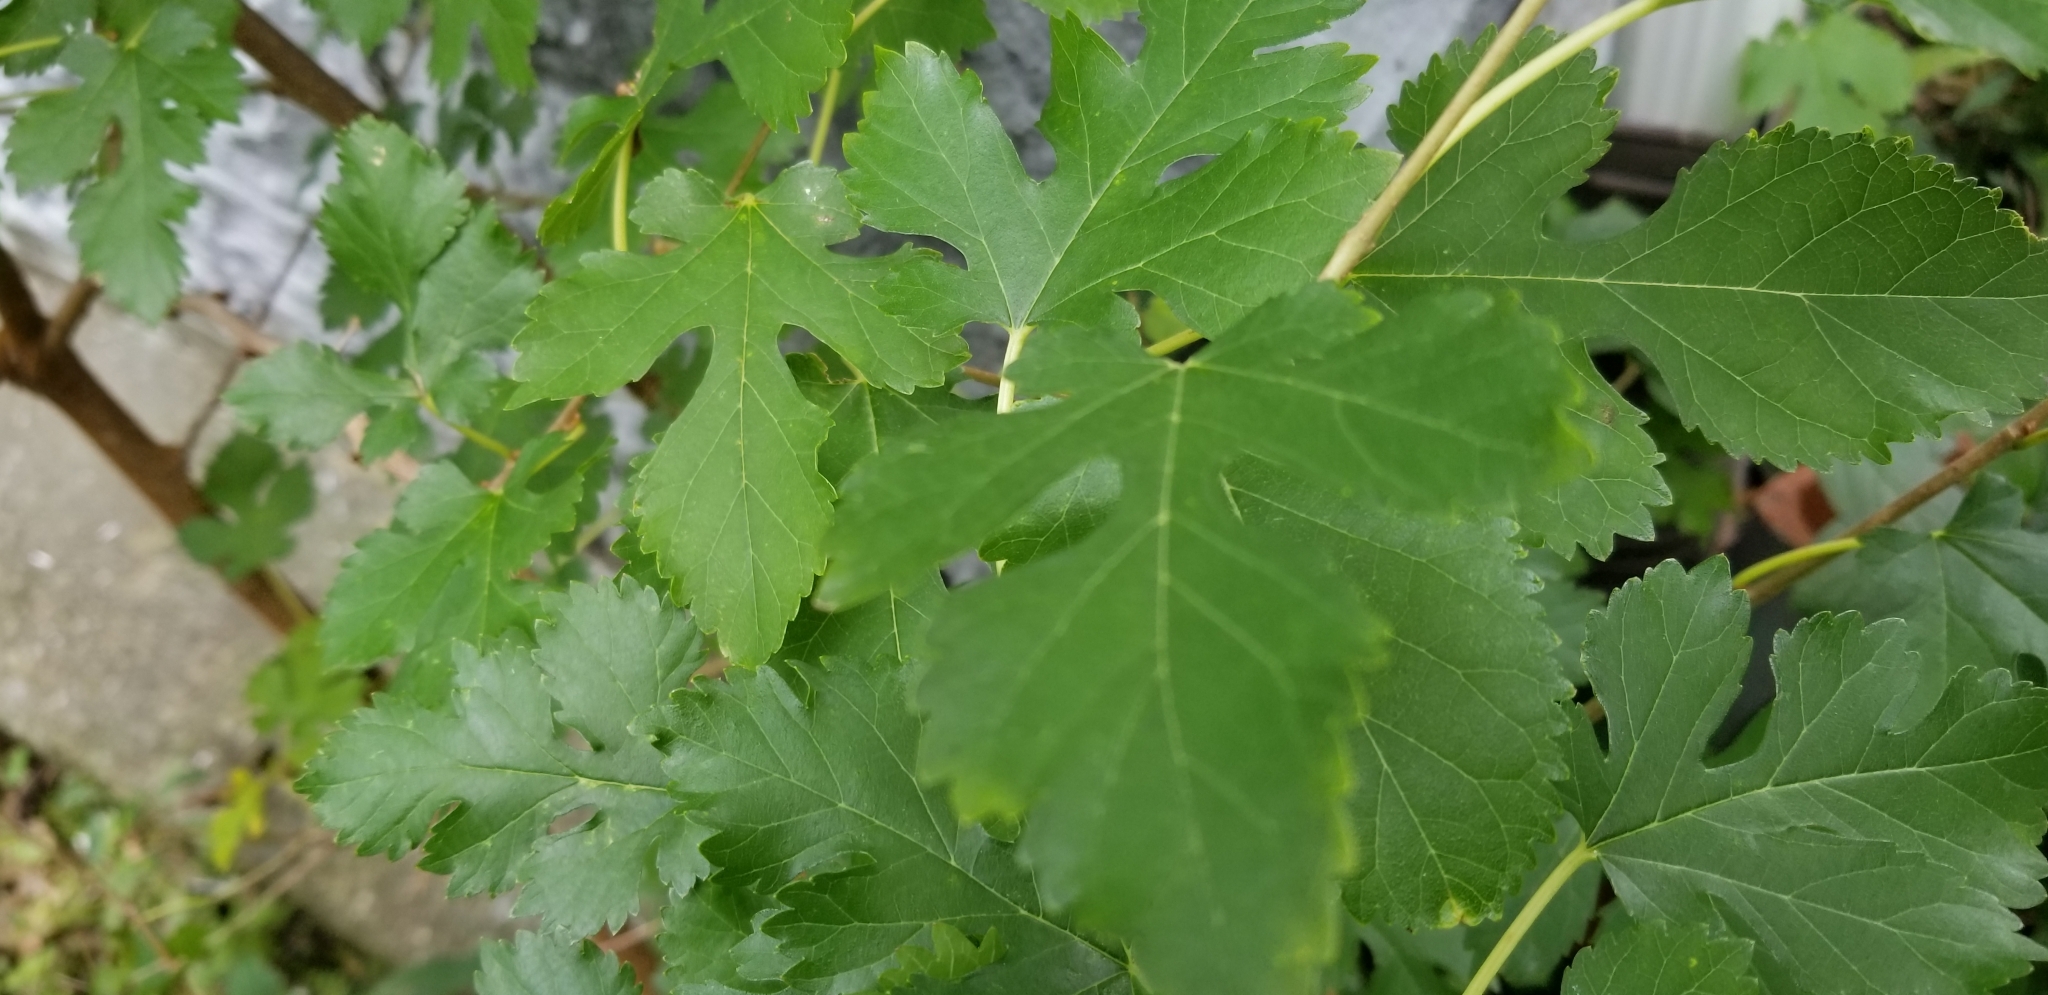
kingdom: Plantae
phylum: Tracheophyta
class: Magnoliopsida
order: Rosales
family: Moraceae
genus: Morus
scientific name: Morus alba
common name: White mulberry
